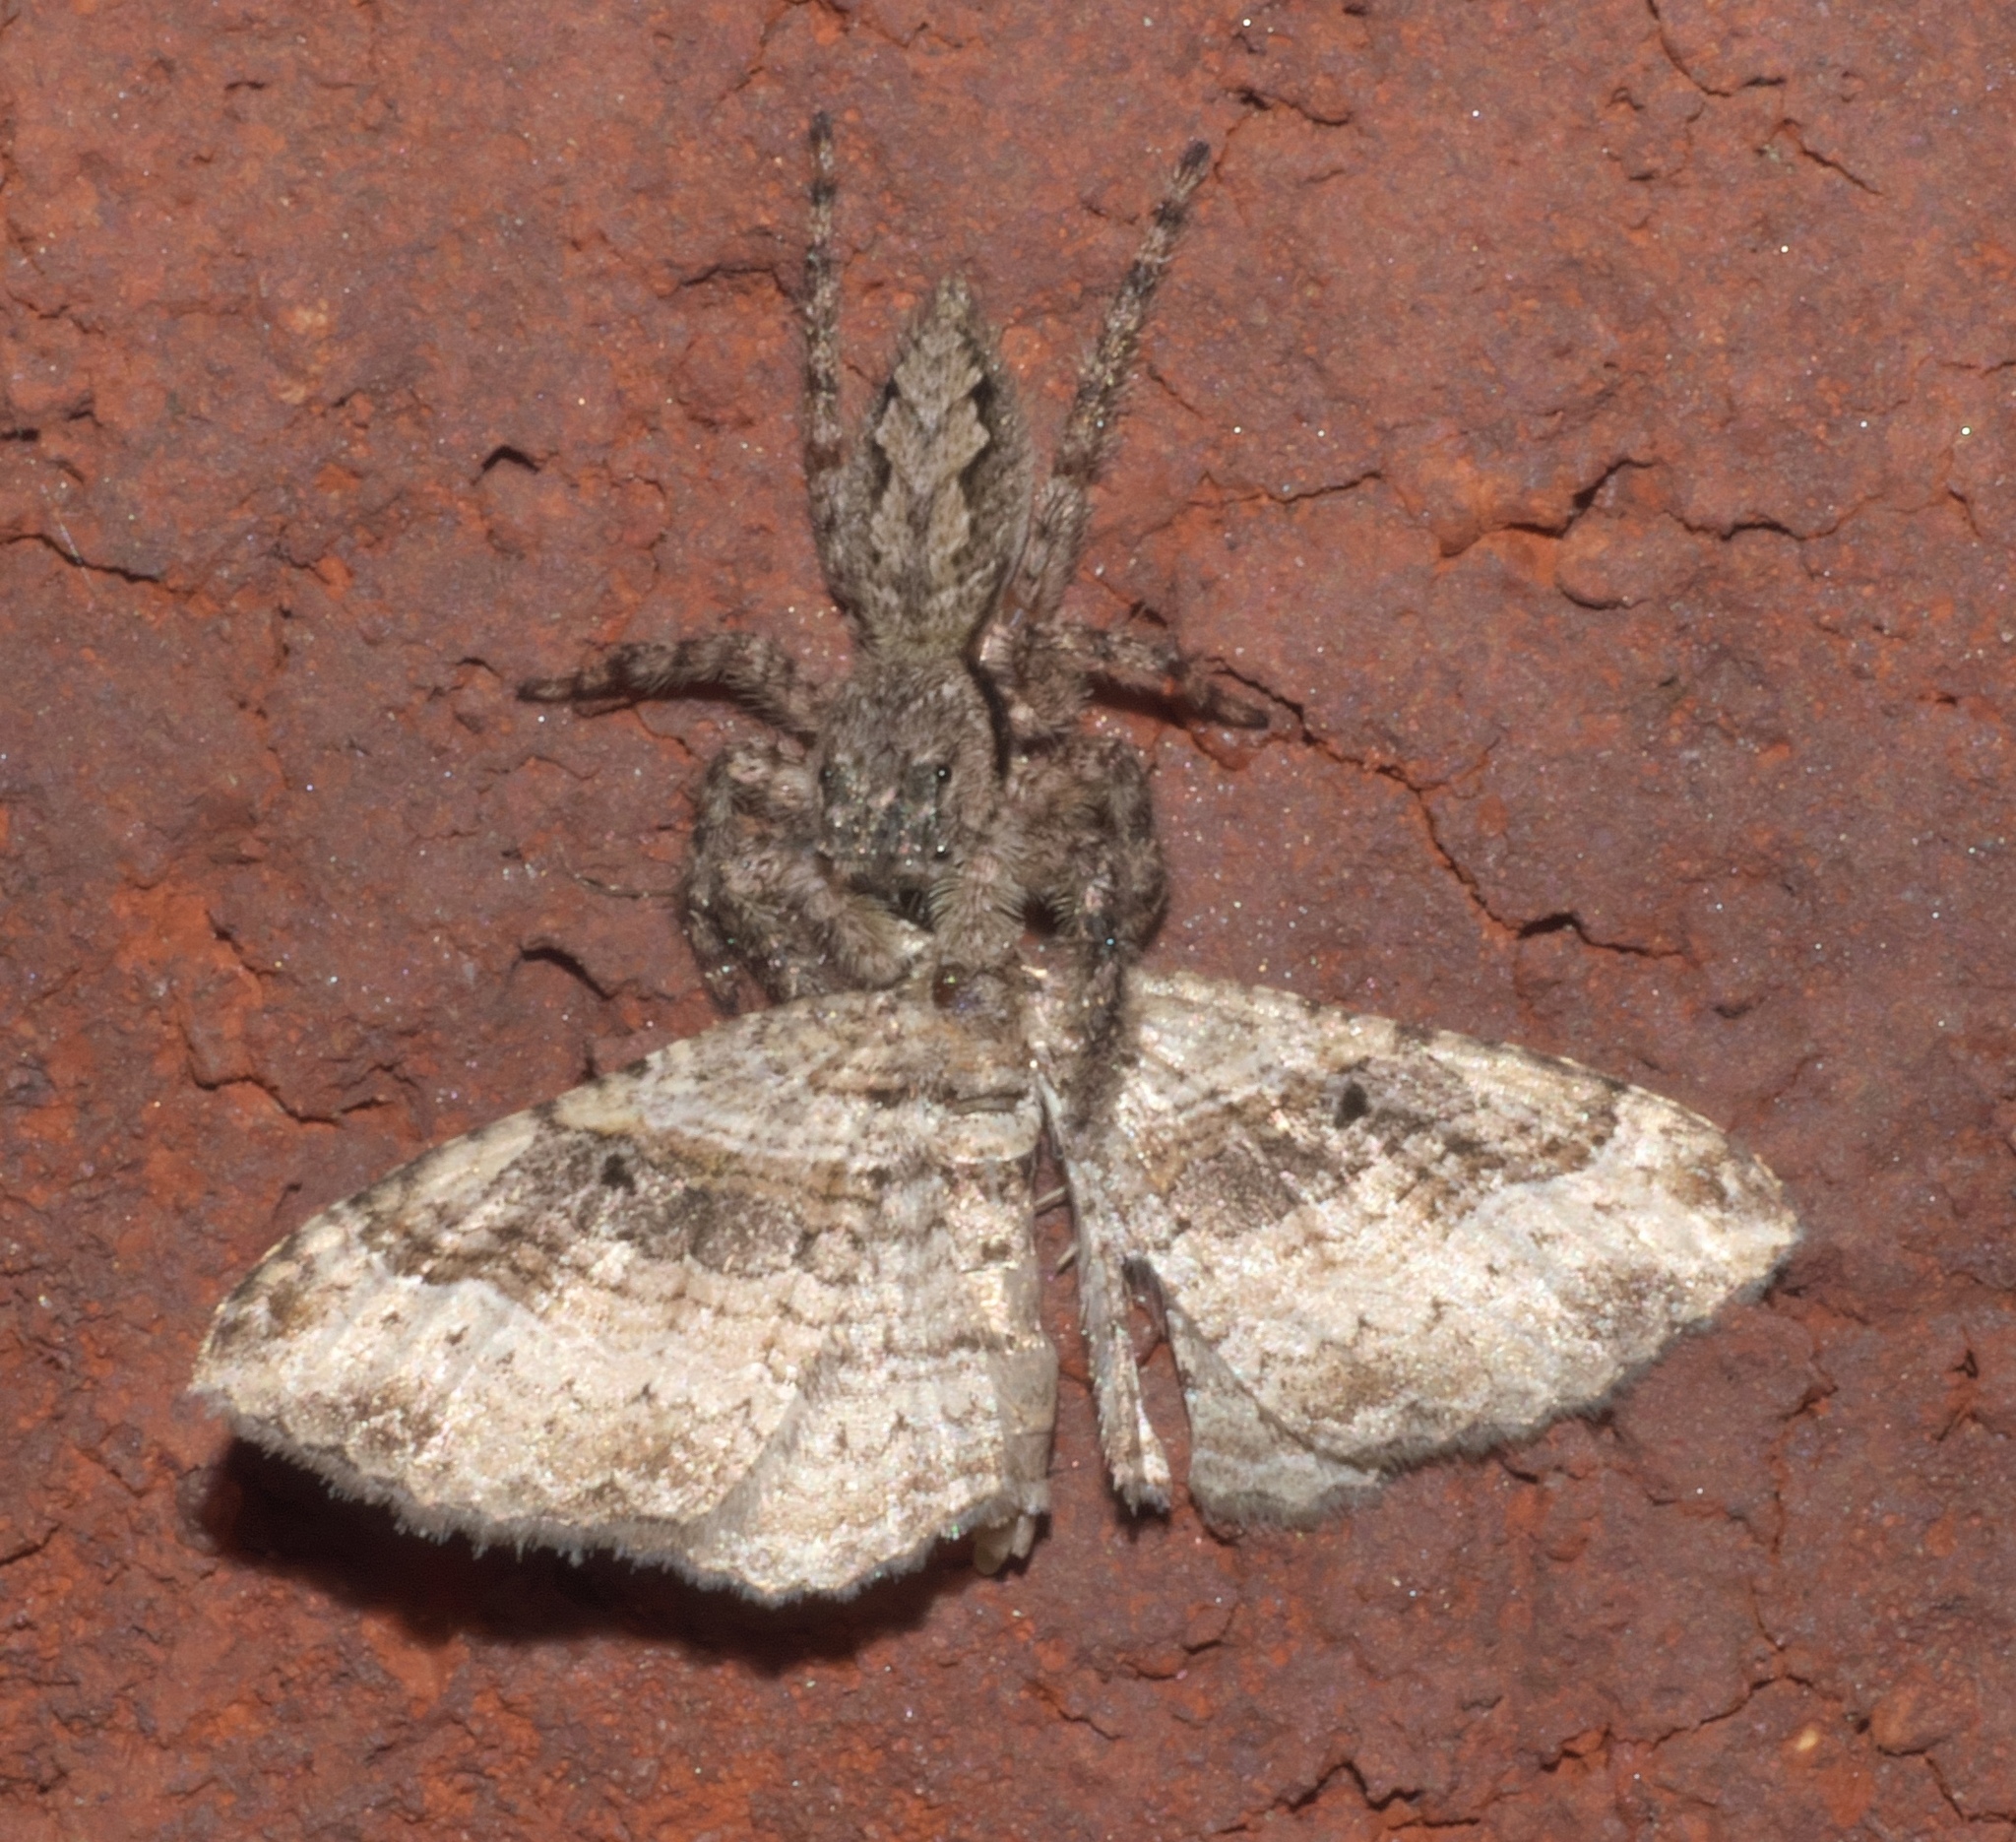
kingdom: Animalia
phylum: Arthropoda
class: Insecta
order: Lepidoptera
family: Geometridae
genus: Costaconvexa
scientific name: Costaconvexa centrostrigaria
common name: Bent-line carpet
